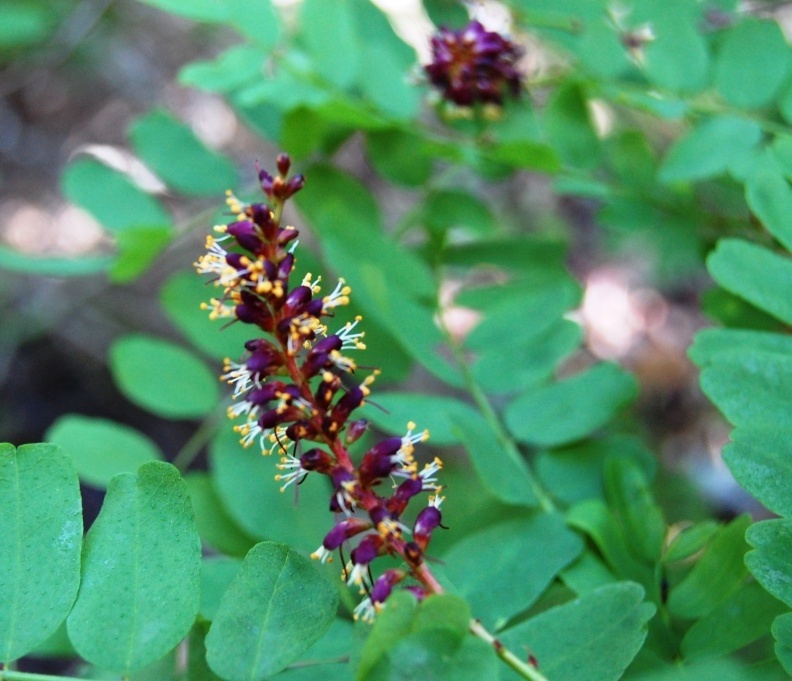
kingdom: Plantae
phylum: Tracheophyta
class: Magnoliopsida
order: Fabales
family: Fabaceae
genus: Amorpha
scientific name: Amorpha californica
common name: California indigobush
